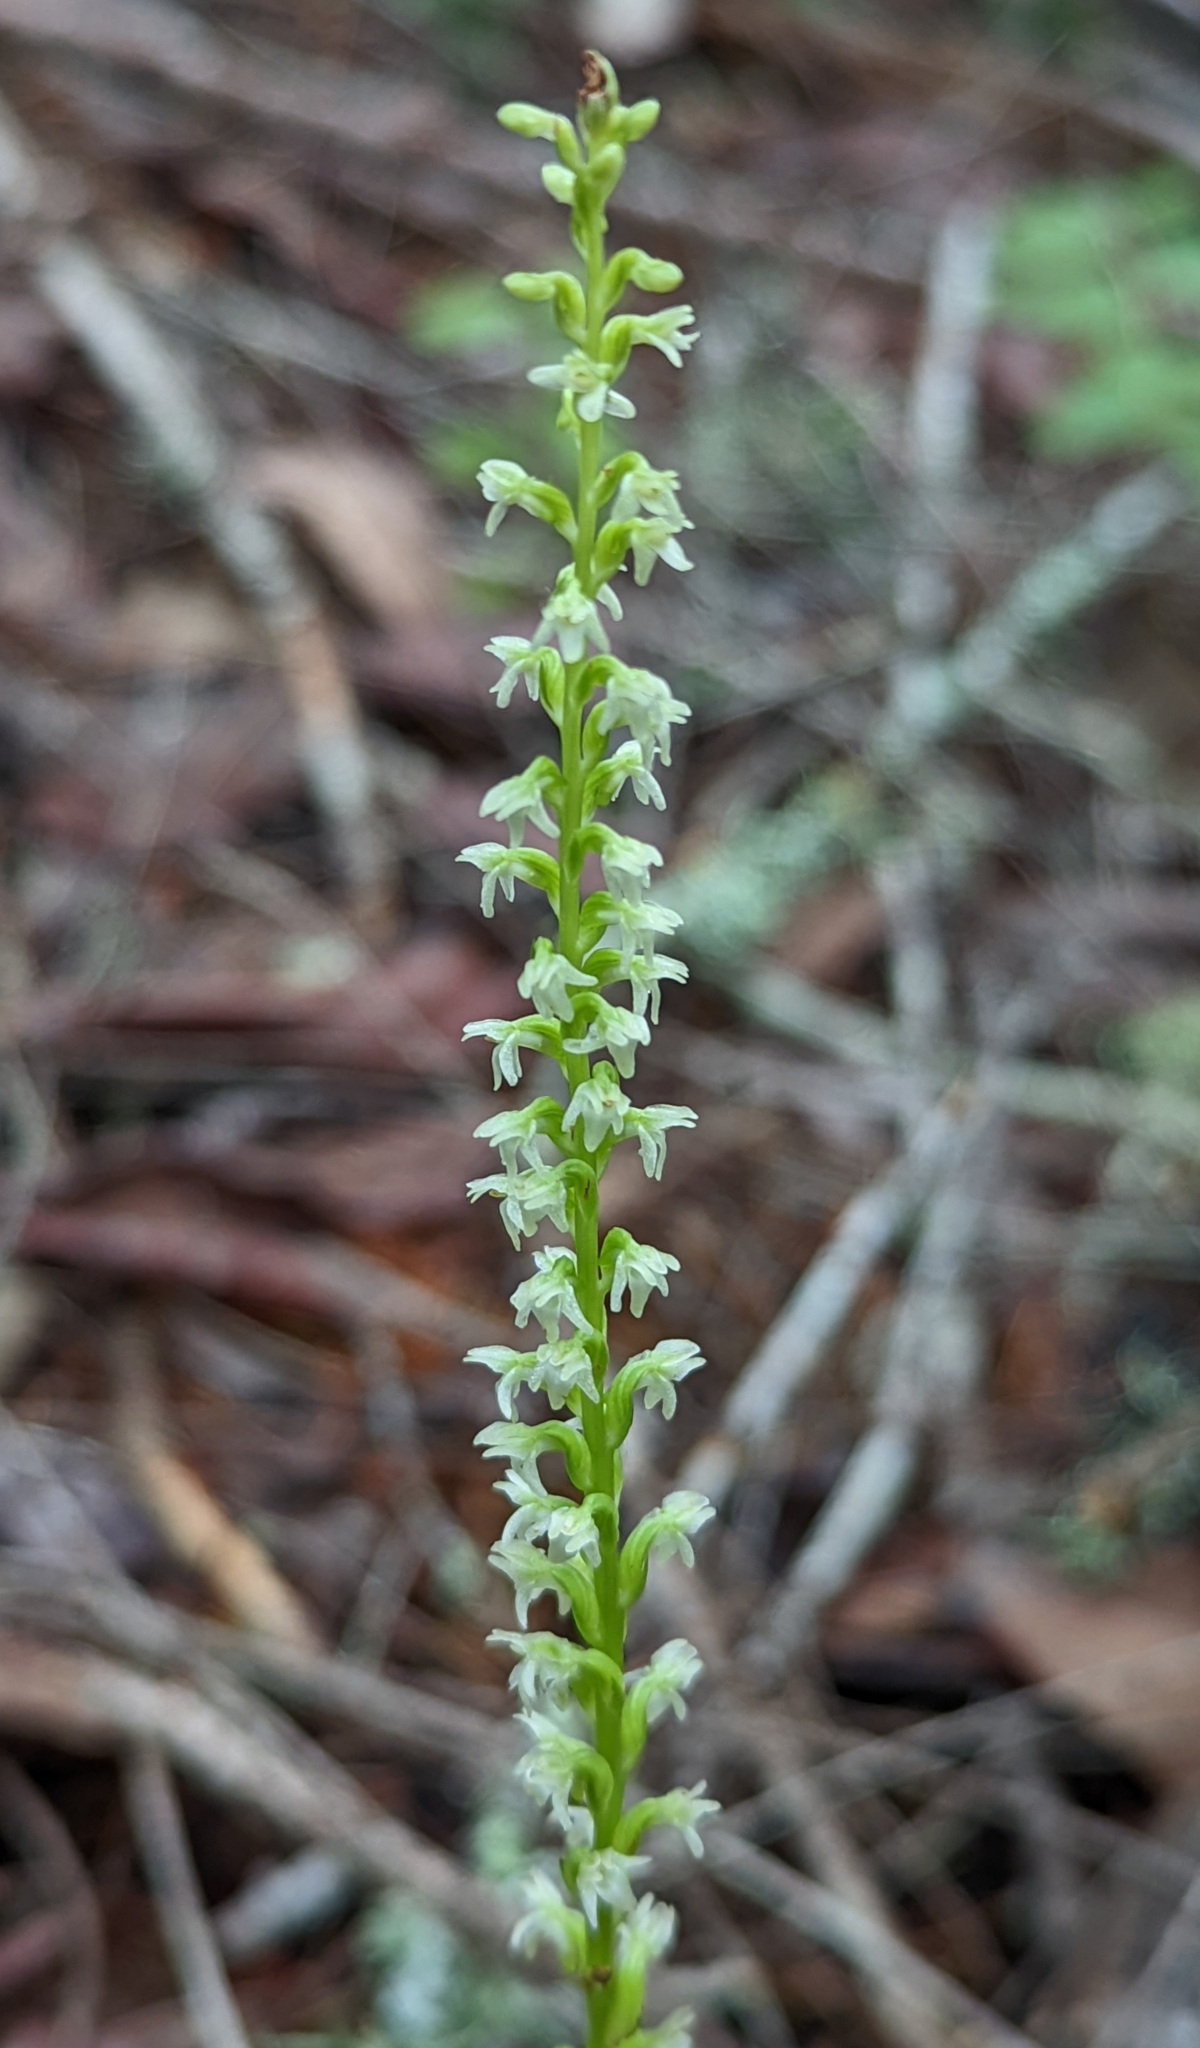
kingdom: Plantae
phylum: Tracheophyta
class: Liliopsida
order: Asparagales
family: Orchidaceae
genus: Platanthera
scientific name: Platanthera ephemerantha
